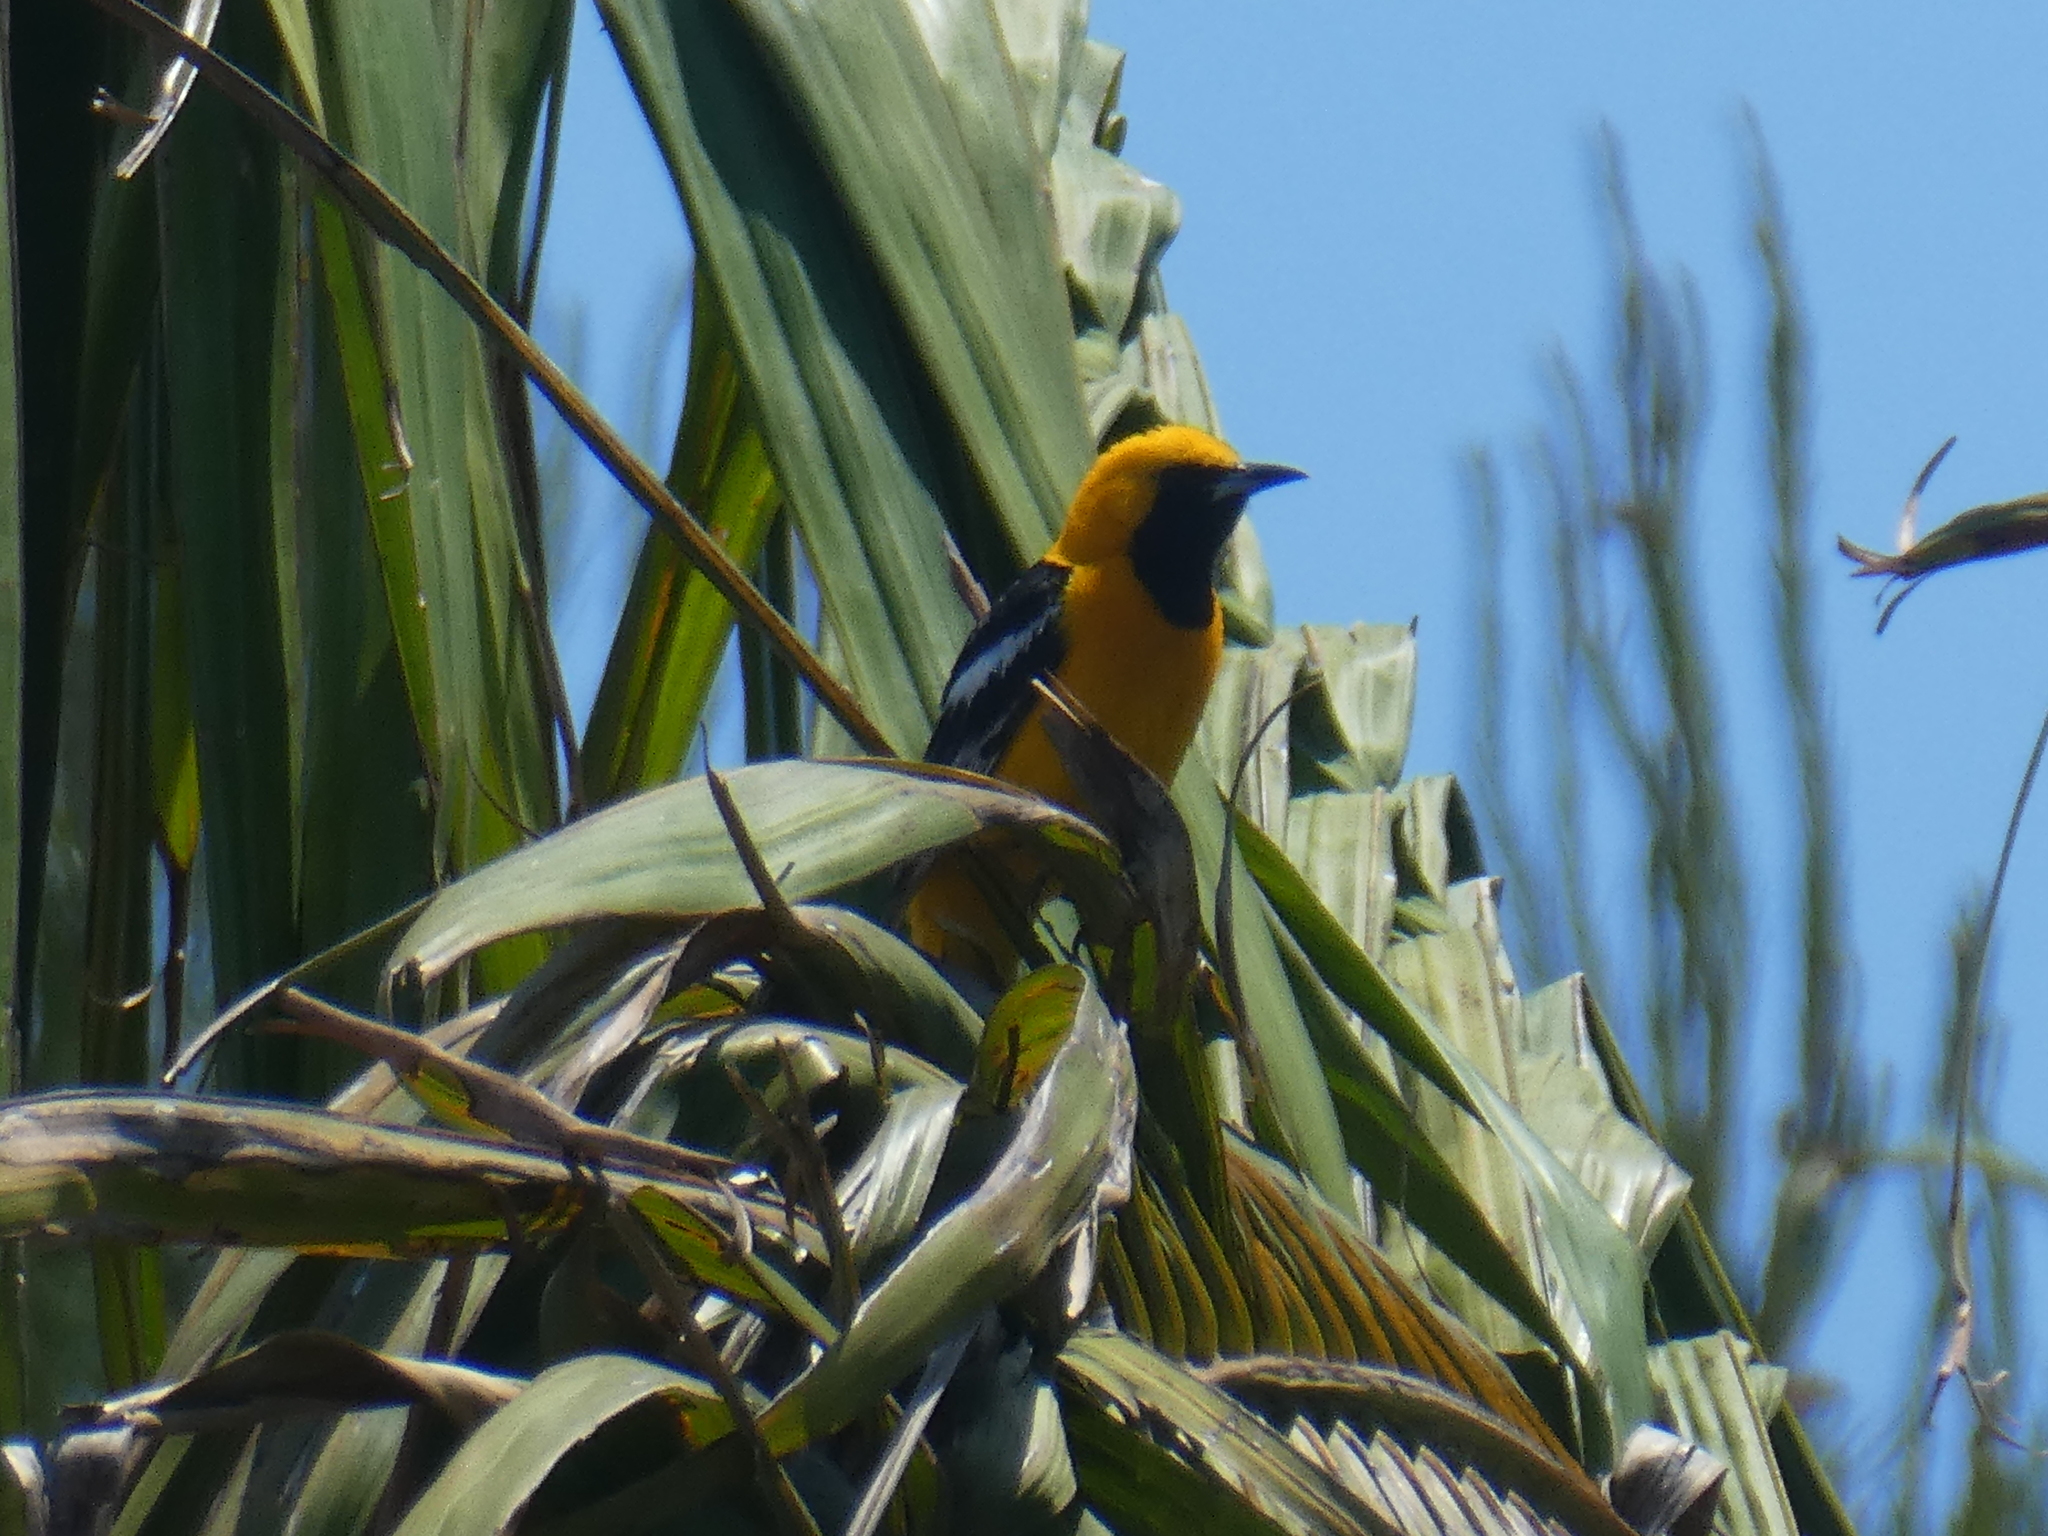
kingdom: Animalia
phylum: Chordata
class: Aves
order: Passeriformes
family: Icteridae
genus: Icterus
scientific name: Icterus cucullatus
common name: Hooded oriole
